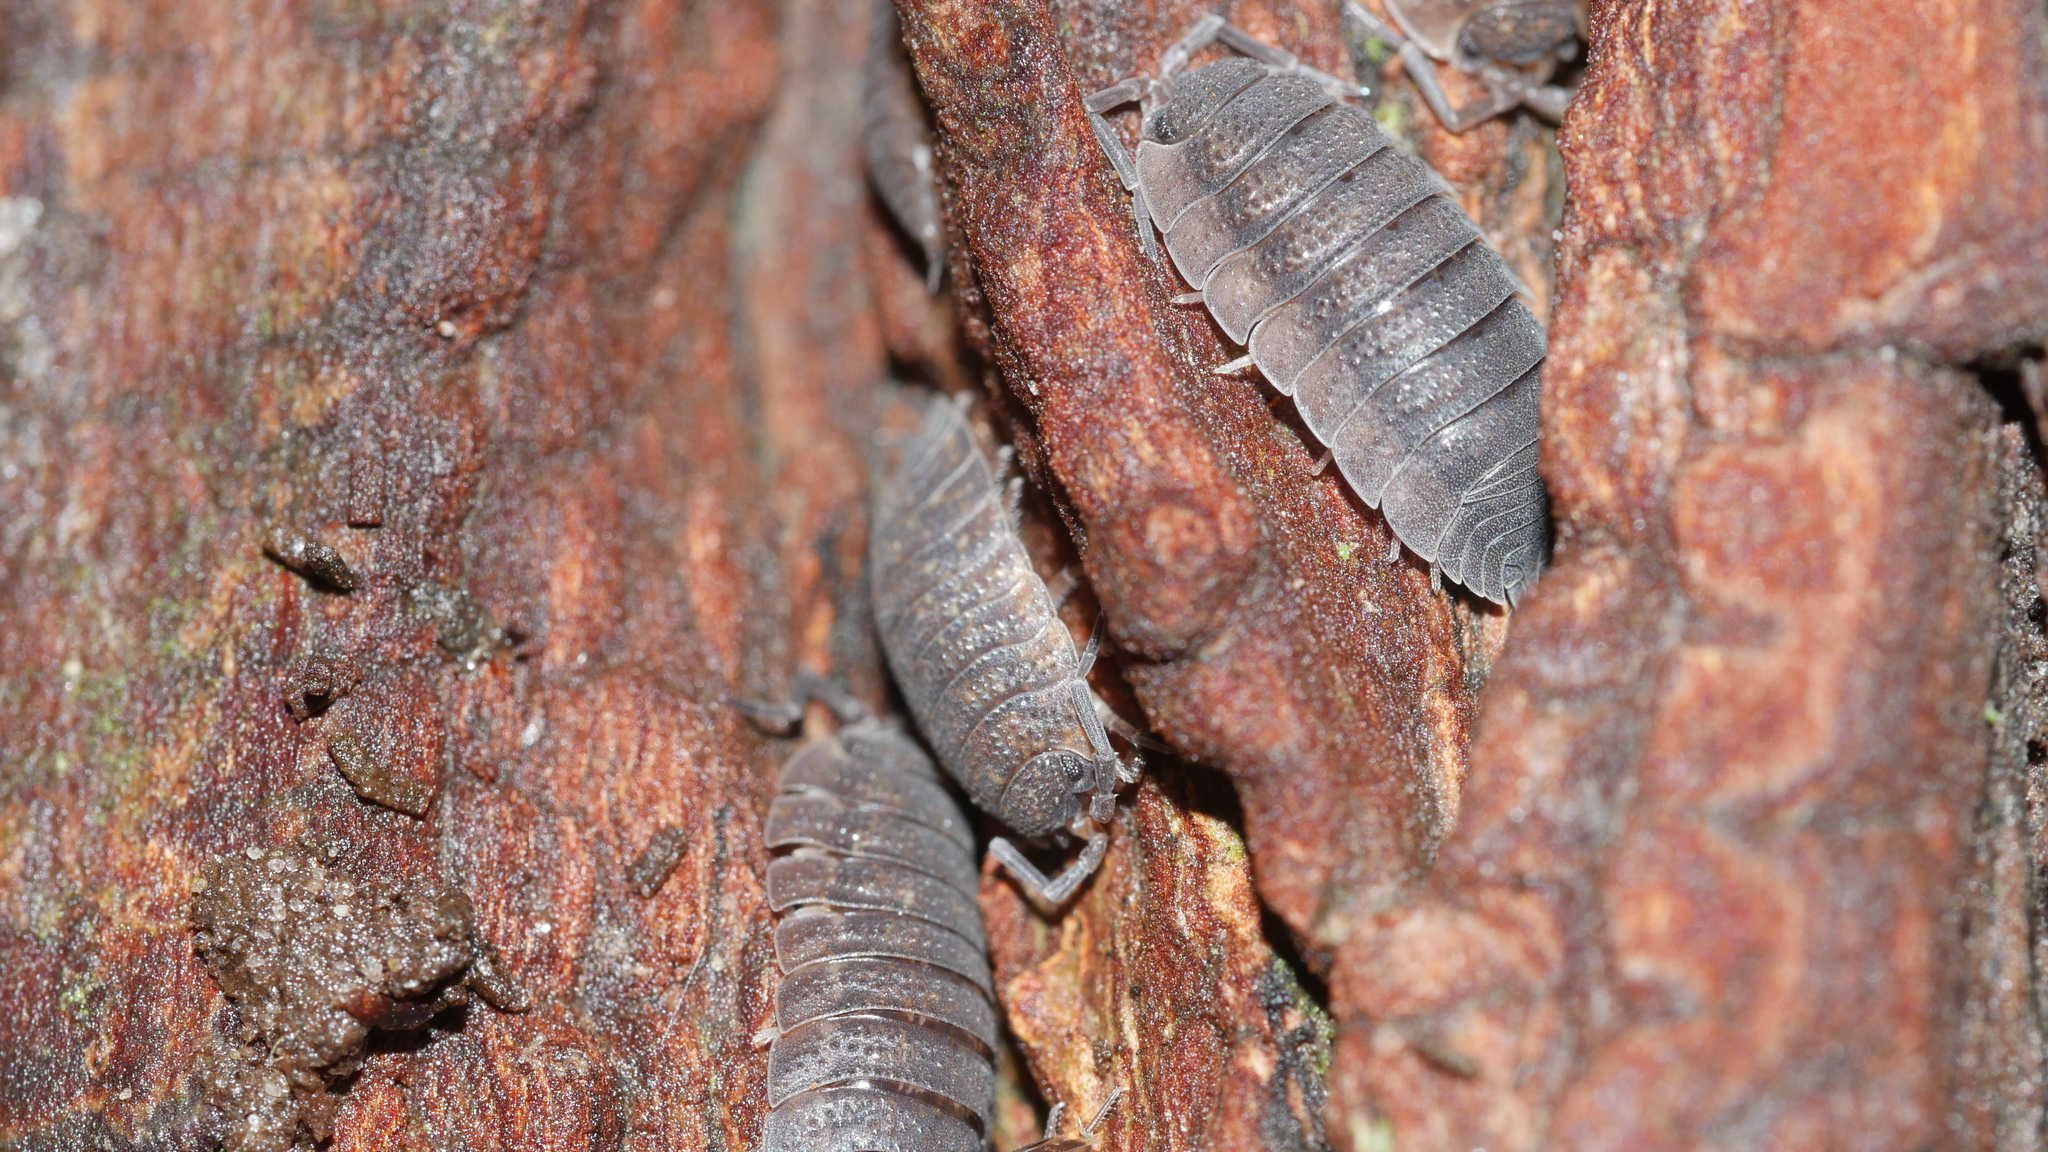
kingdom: Animalia
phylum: Arthropoda
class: Malacostraca
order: Isopoda
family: Porcellionidae
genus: Porcellio
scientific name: Porcellio scaber
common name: Common rough woodlouse
